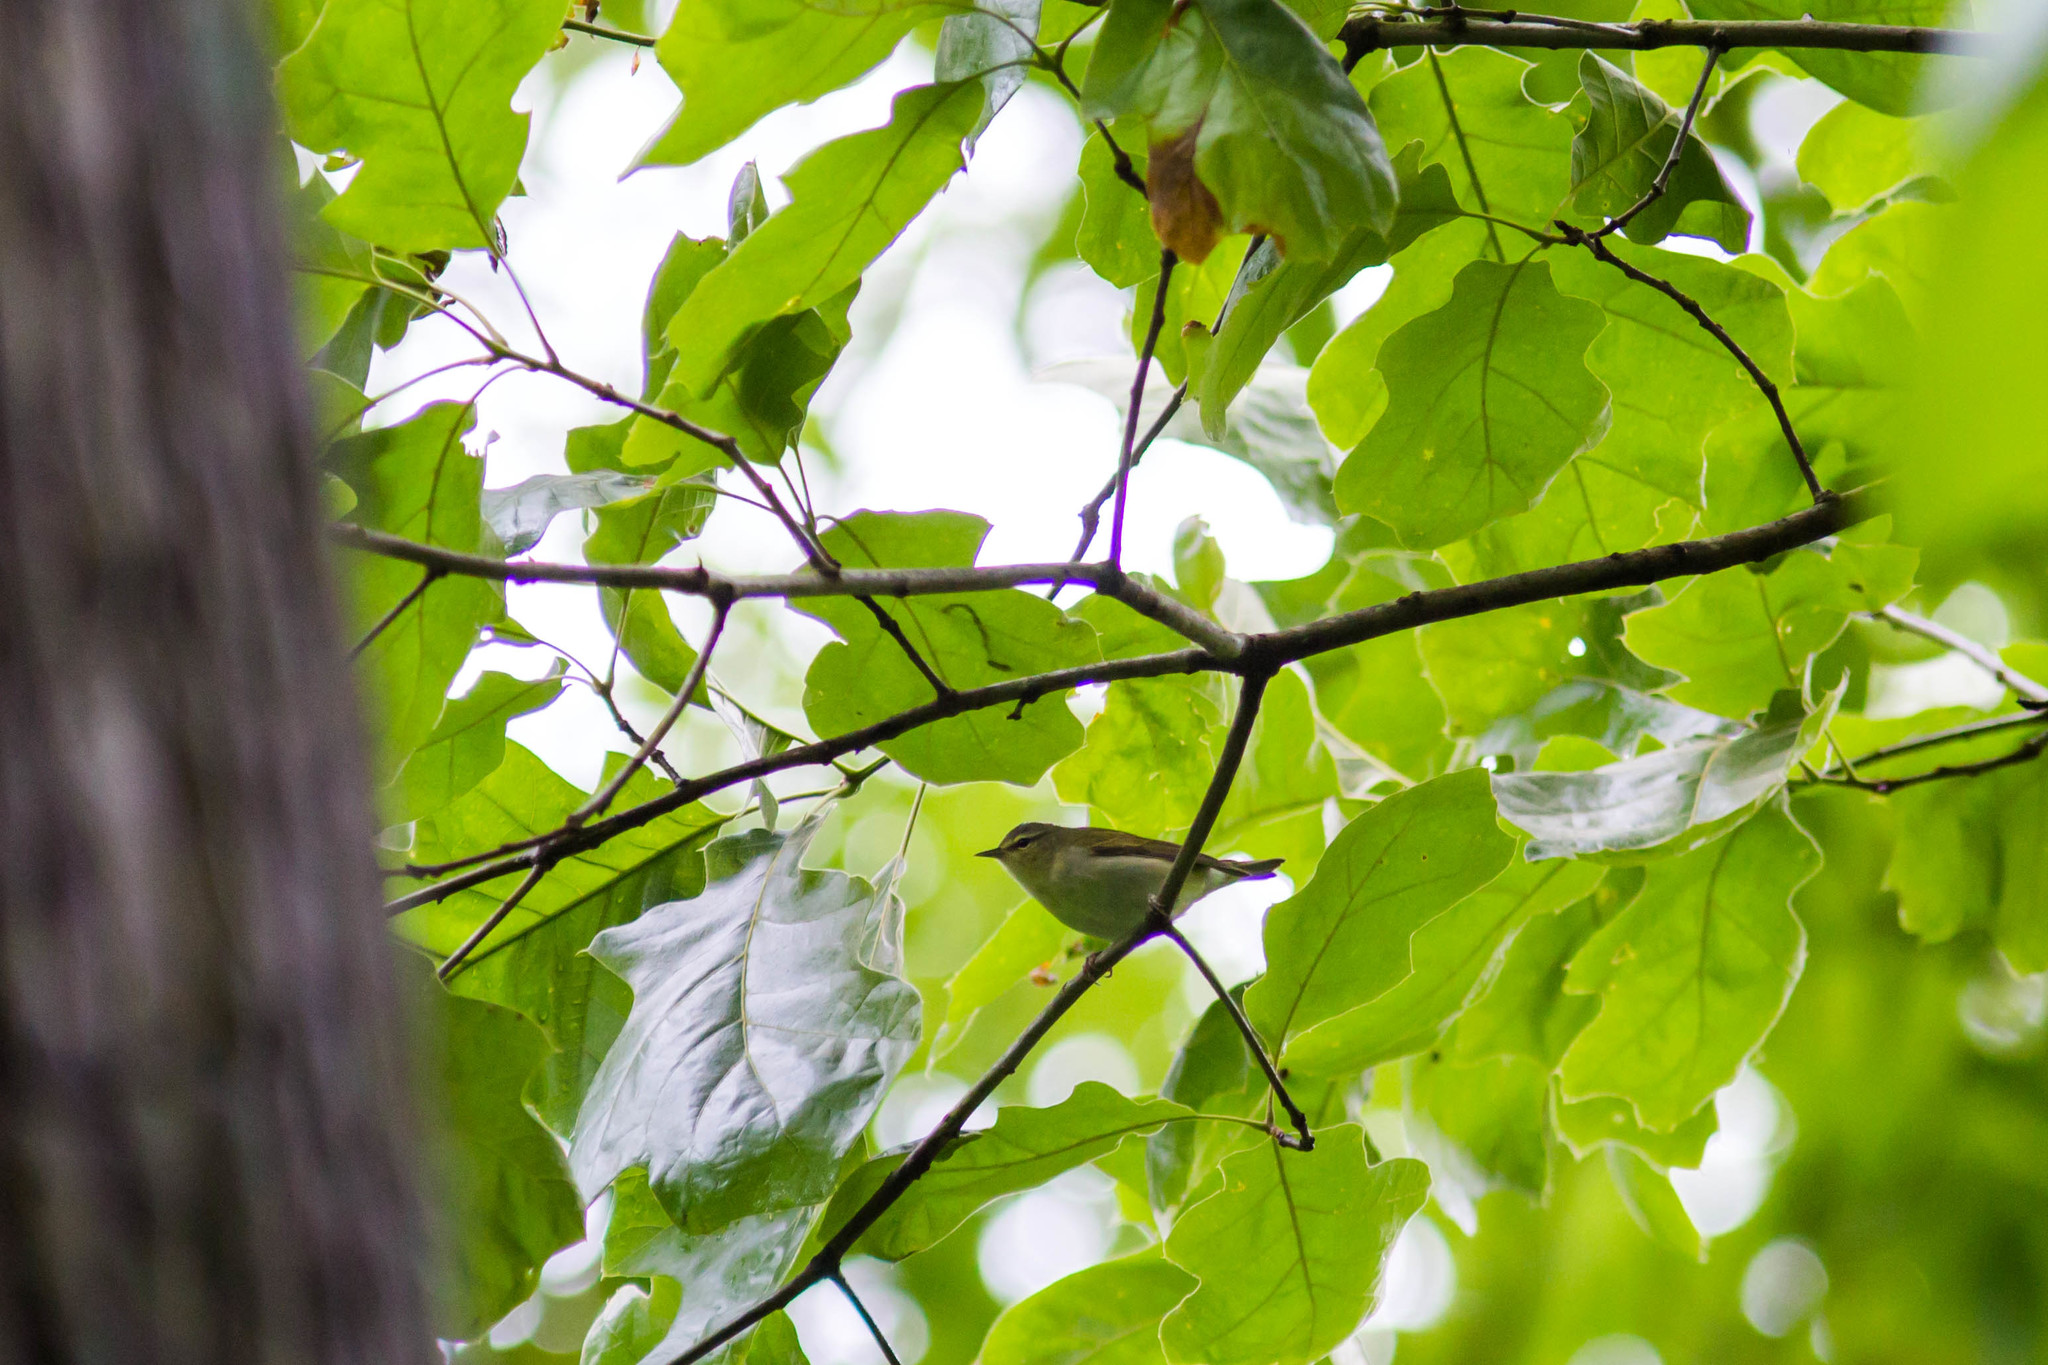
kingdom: Animalia
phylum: Chordata
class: Aves
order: Passeriformes
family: Parulidae
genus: Leiothlypis
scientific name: Leiothlypis peregrina
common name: Tennessee warbler
